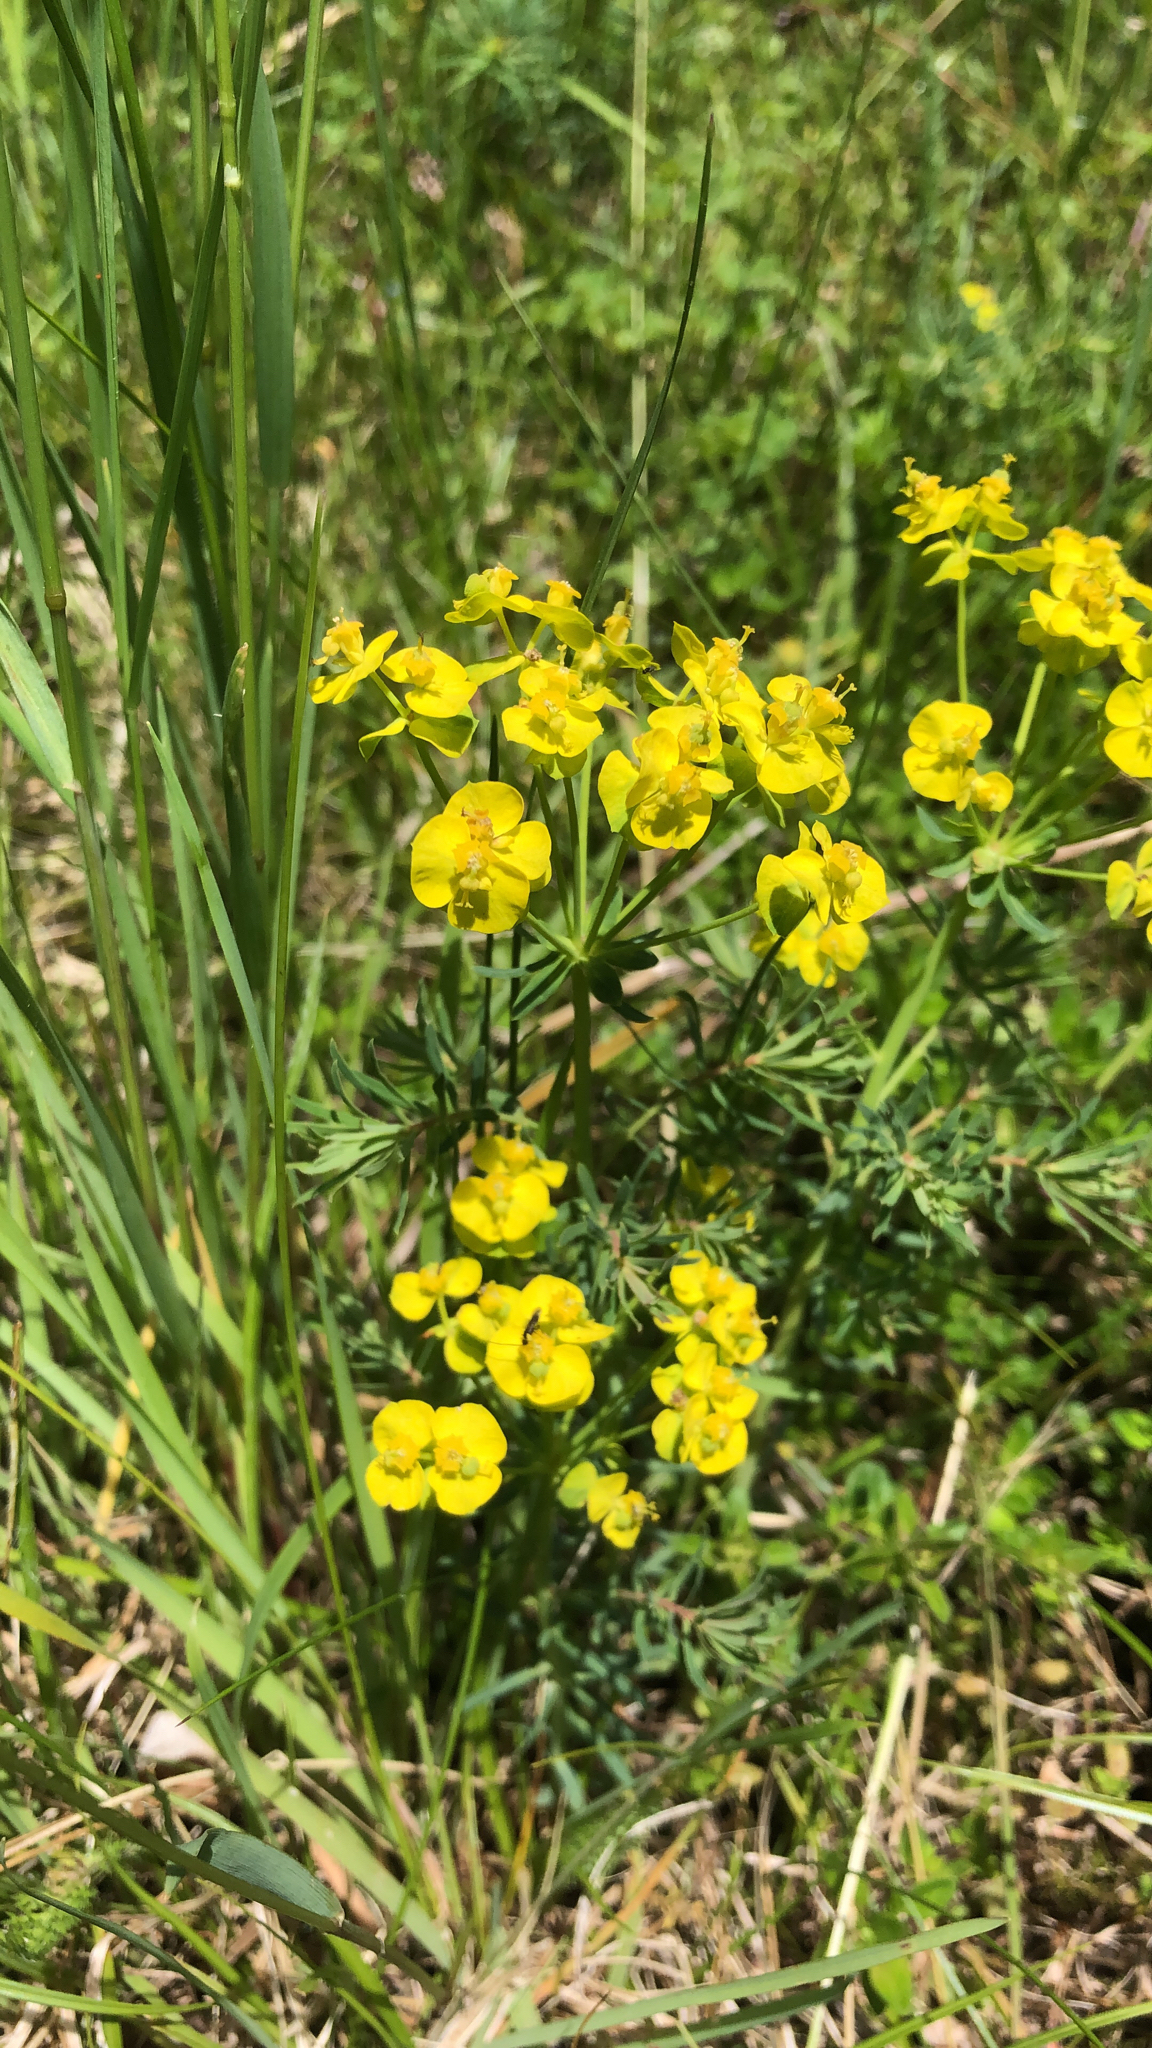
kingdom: Plantae
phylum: Tracheophyta
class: Magnoliopsida
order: Malpighiales
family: Euphorbiaceae
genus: Euphorbia
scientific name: Euphorbia cyparissias
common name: Cypress spurge
